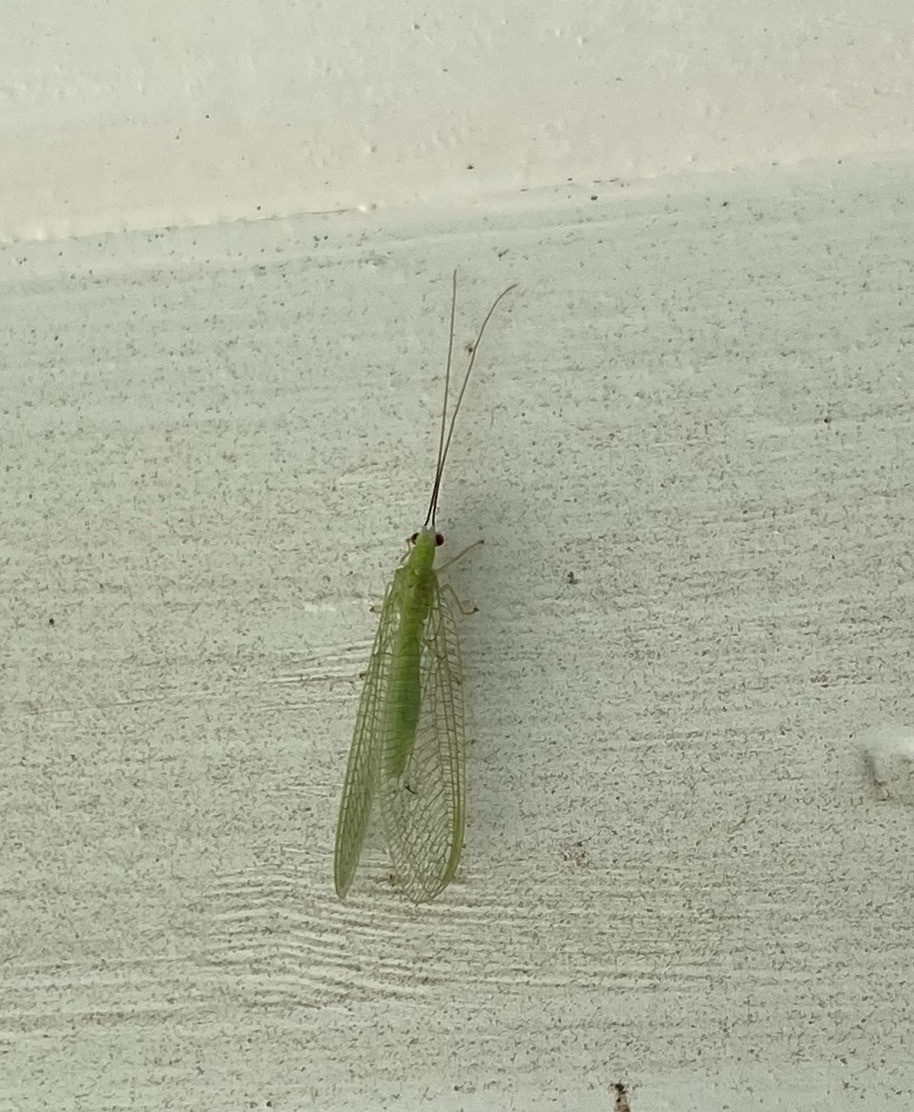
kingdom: Animalia
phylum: Arthropoda
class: Insecta
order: Neuroptera
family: Chrysopidae
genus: Chrysopa
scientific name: Chrysopa nigricornis
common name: Black-horned green lacewing
